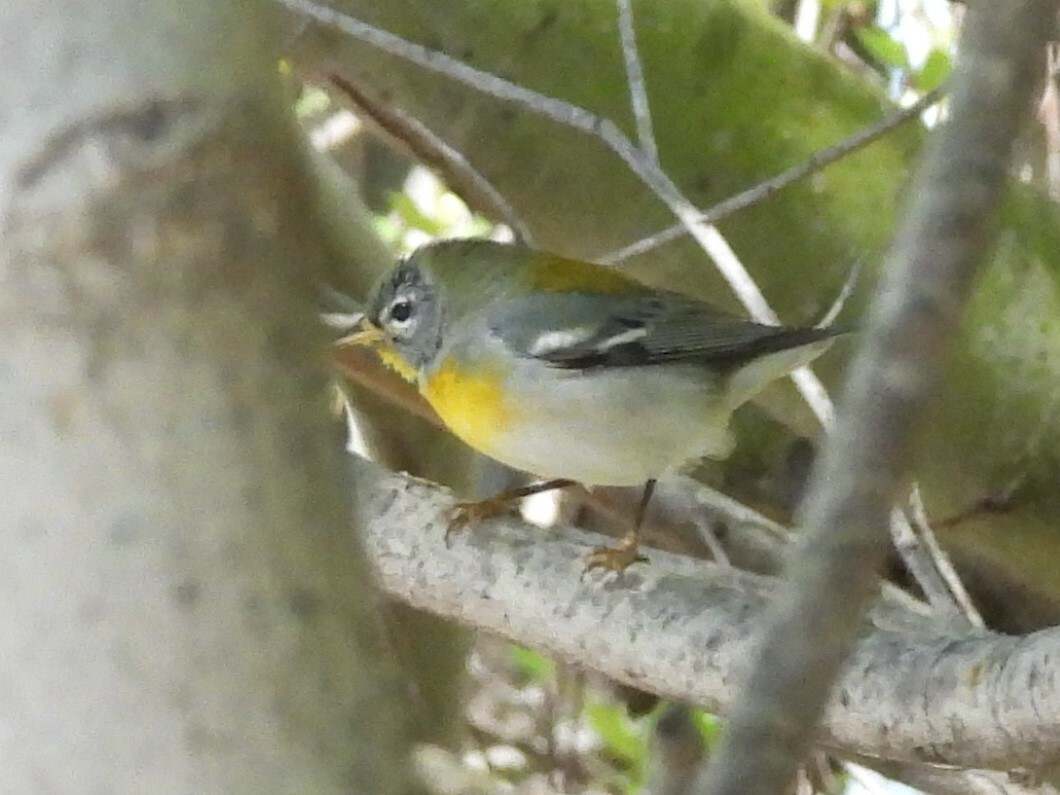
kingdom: Animalia
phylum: Chordata
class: Aves
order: Passeriformes
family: Parulidae
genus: Setophaga
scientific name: Setophaga americana
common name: Northern parula
